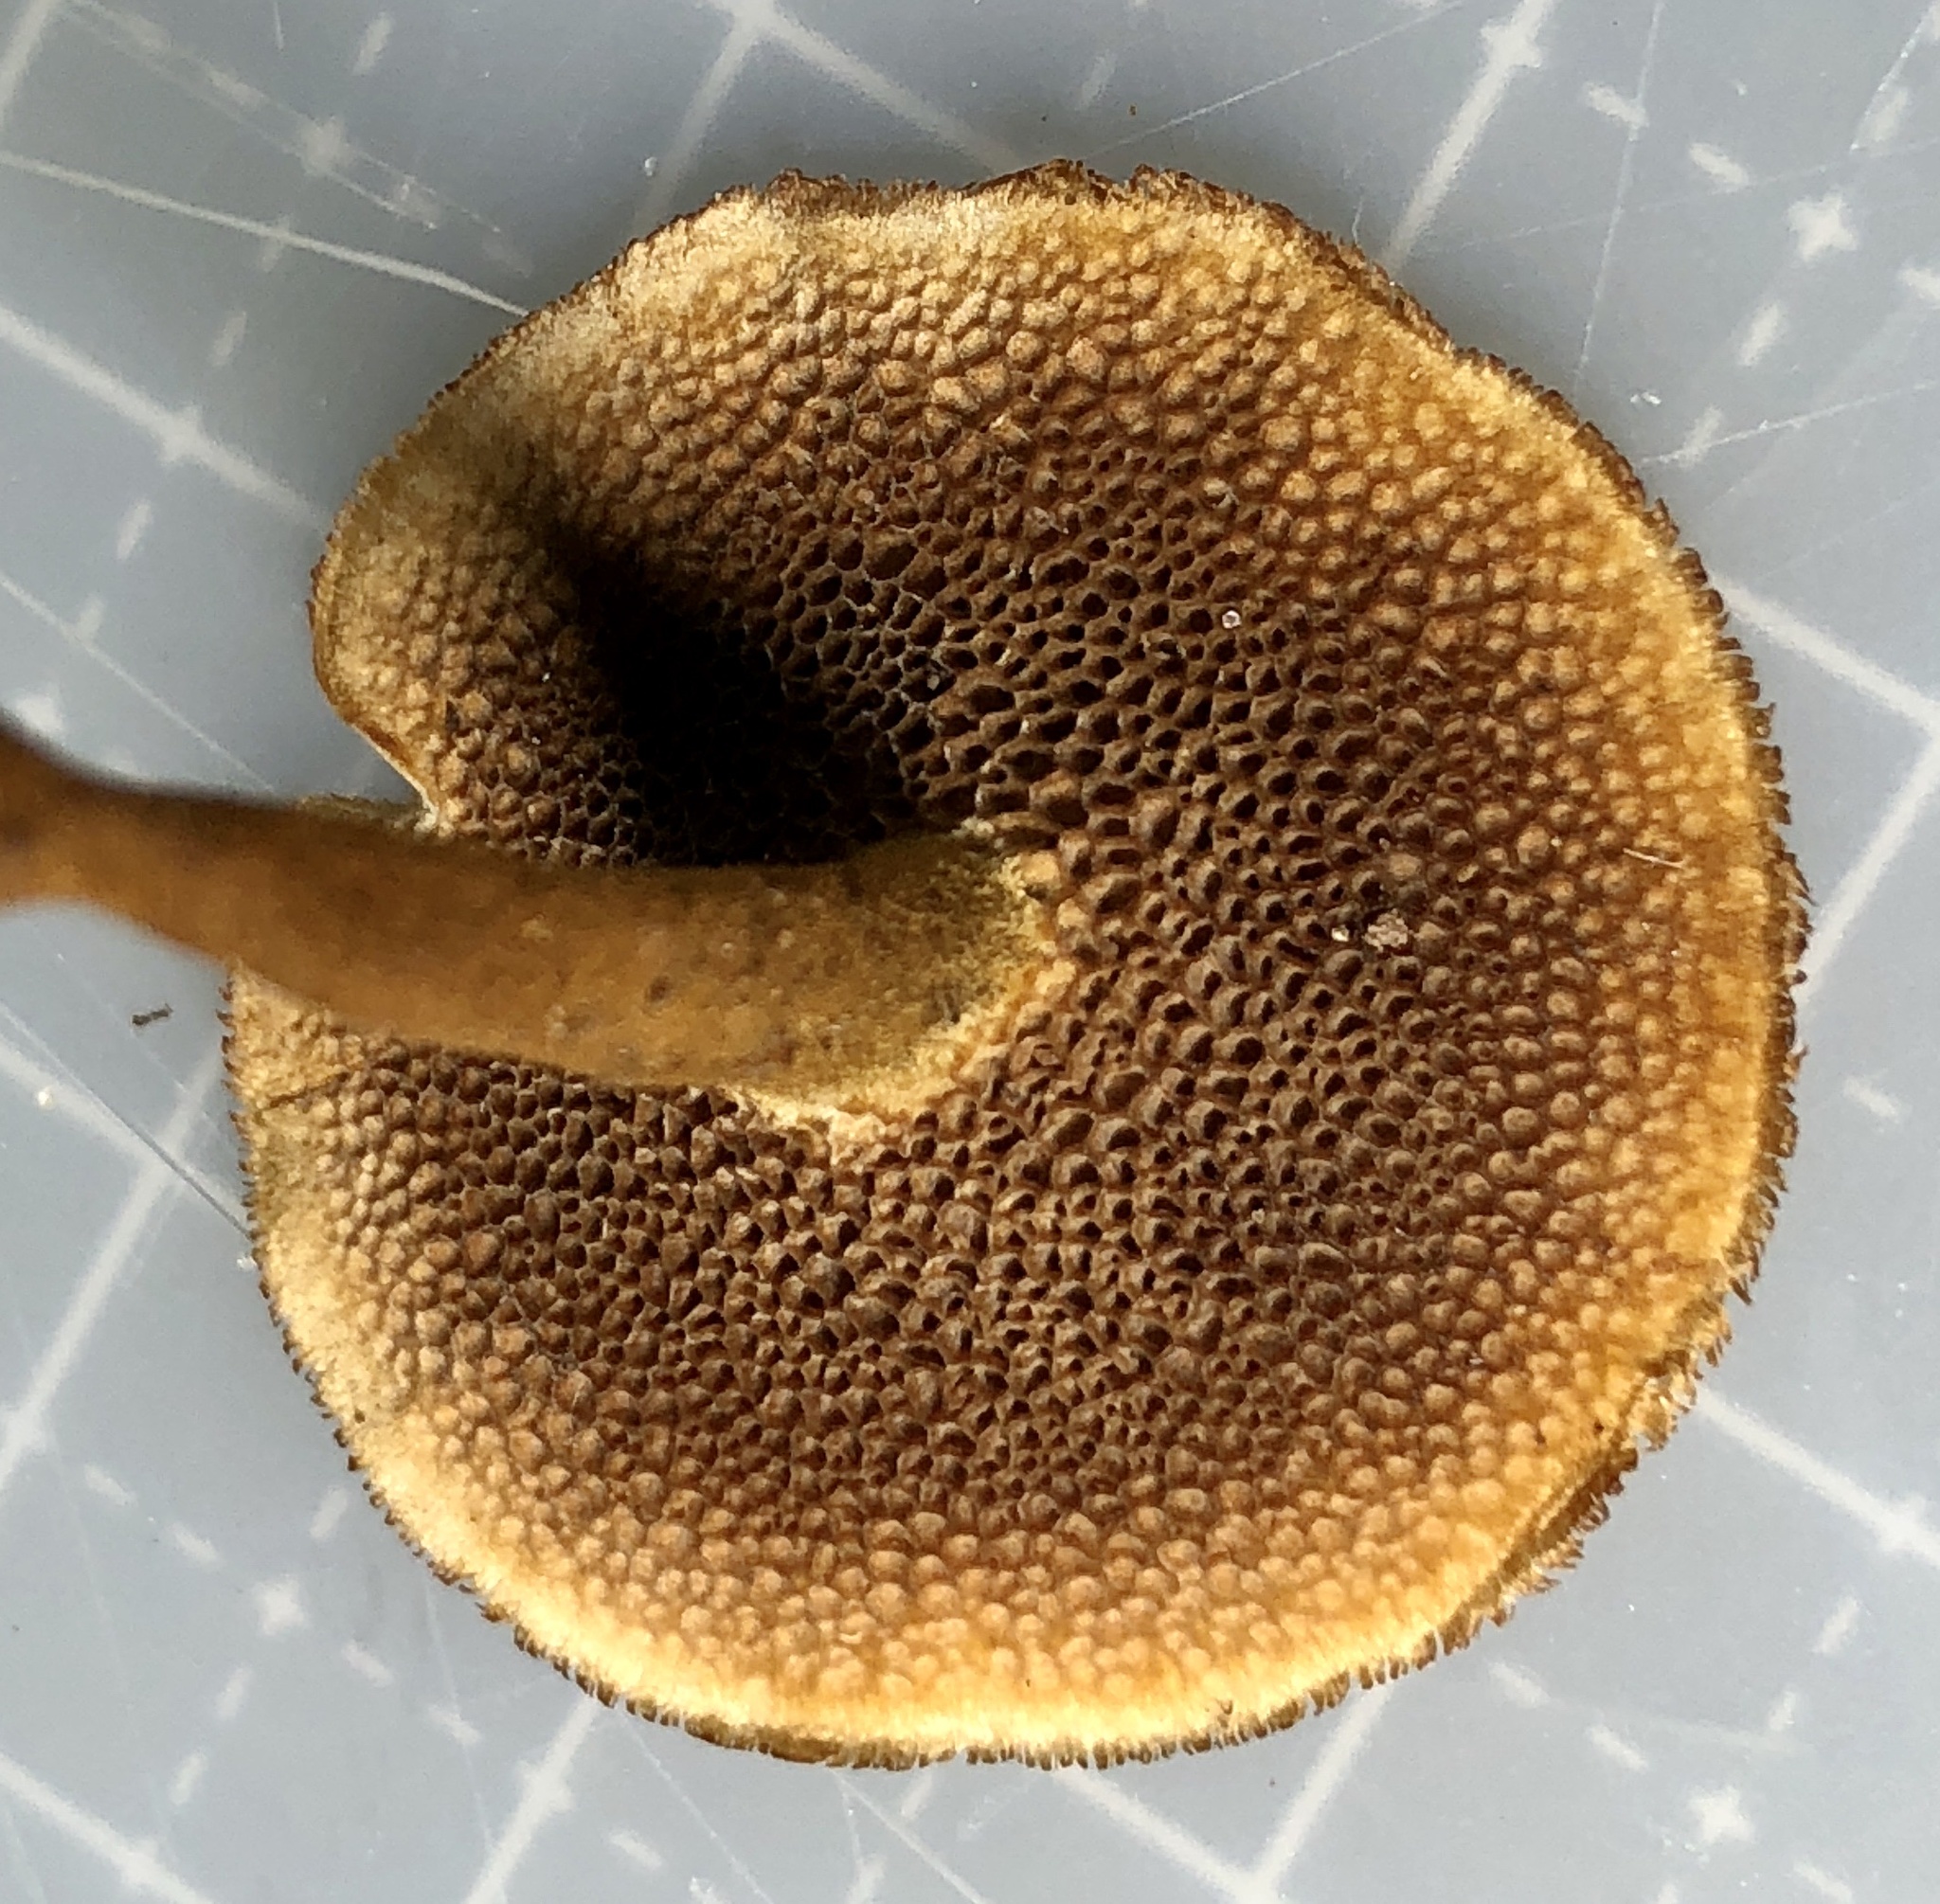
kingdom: Fungi
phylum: Basidiomycota
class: Agaricomycetes
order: Hymenochaetales
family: Hymenochaetaceae
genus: Coltricia
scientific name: Coltricia cinnamomea
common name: Shiny cinnamon polypore
